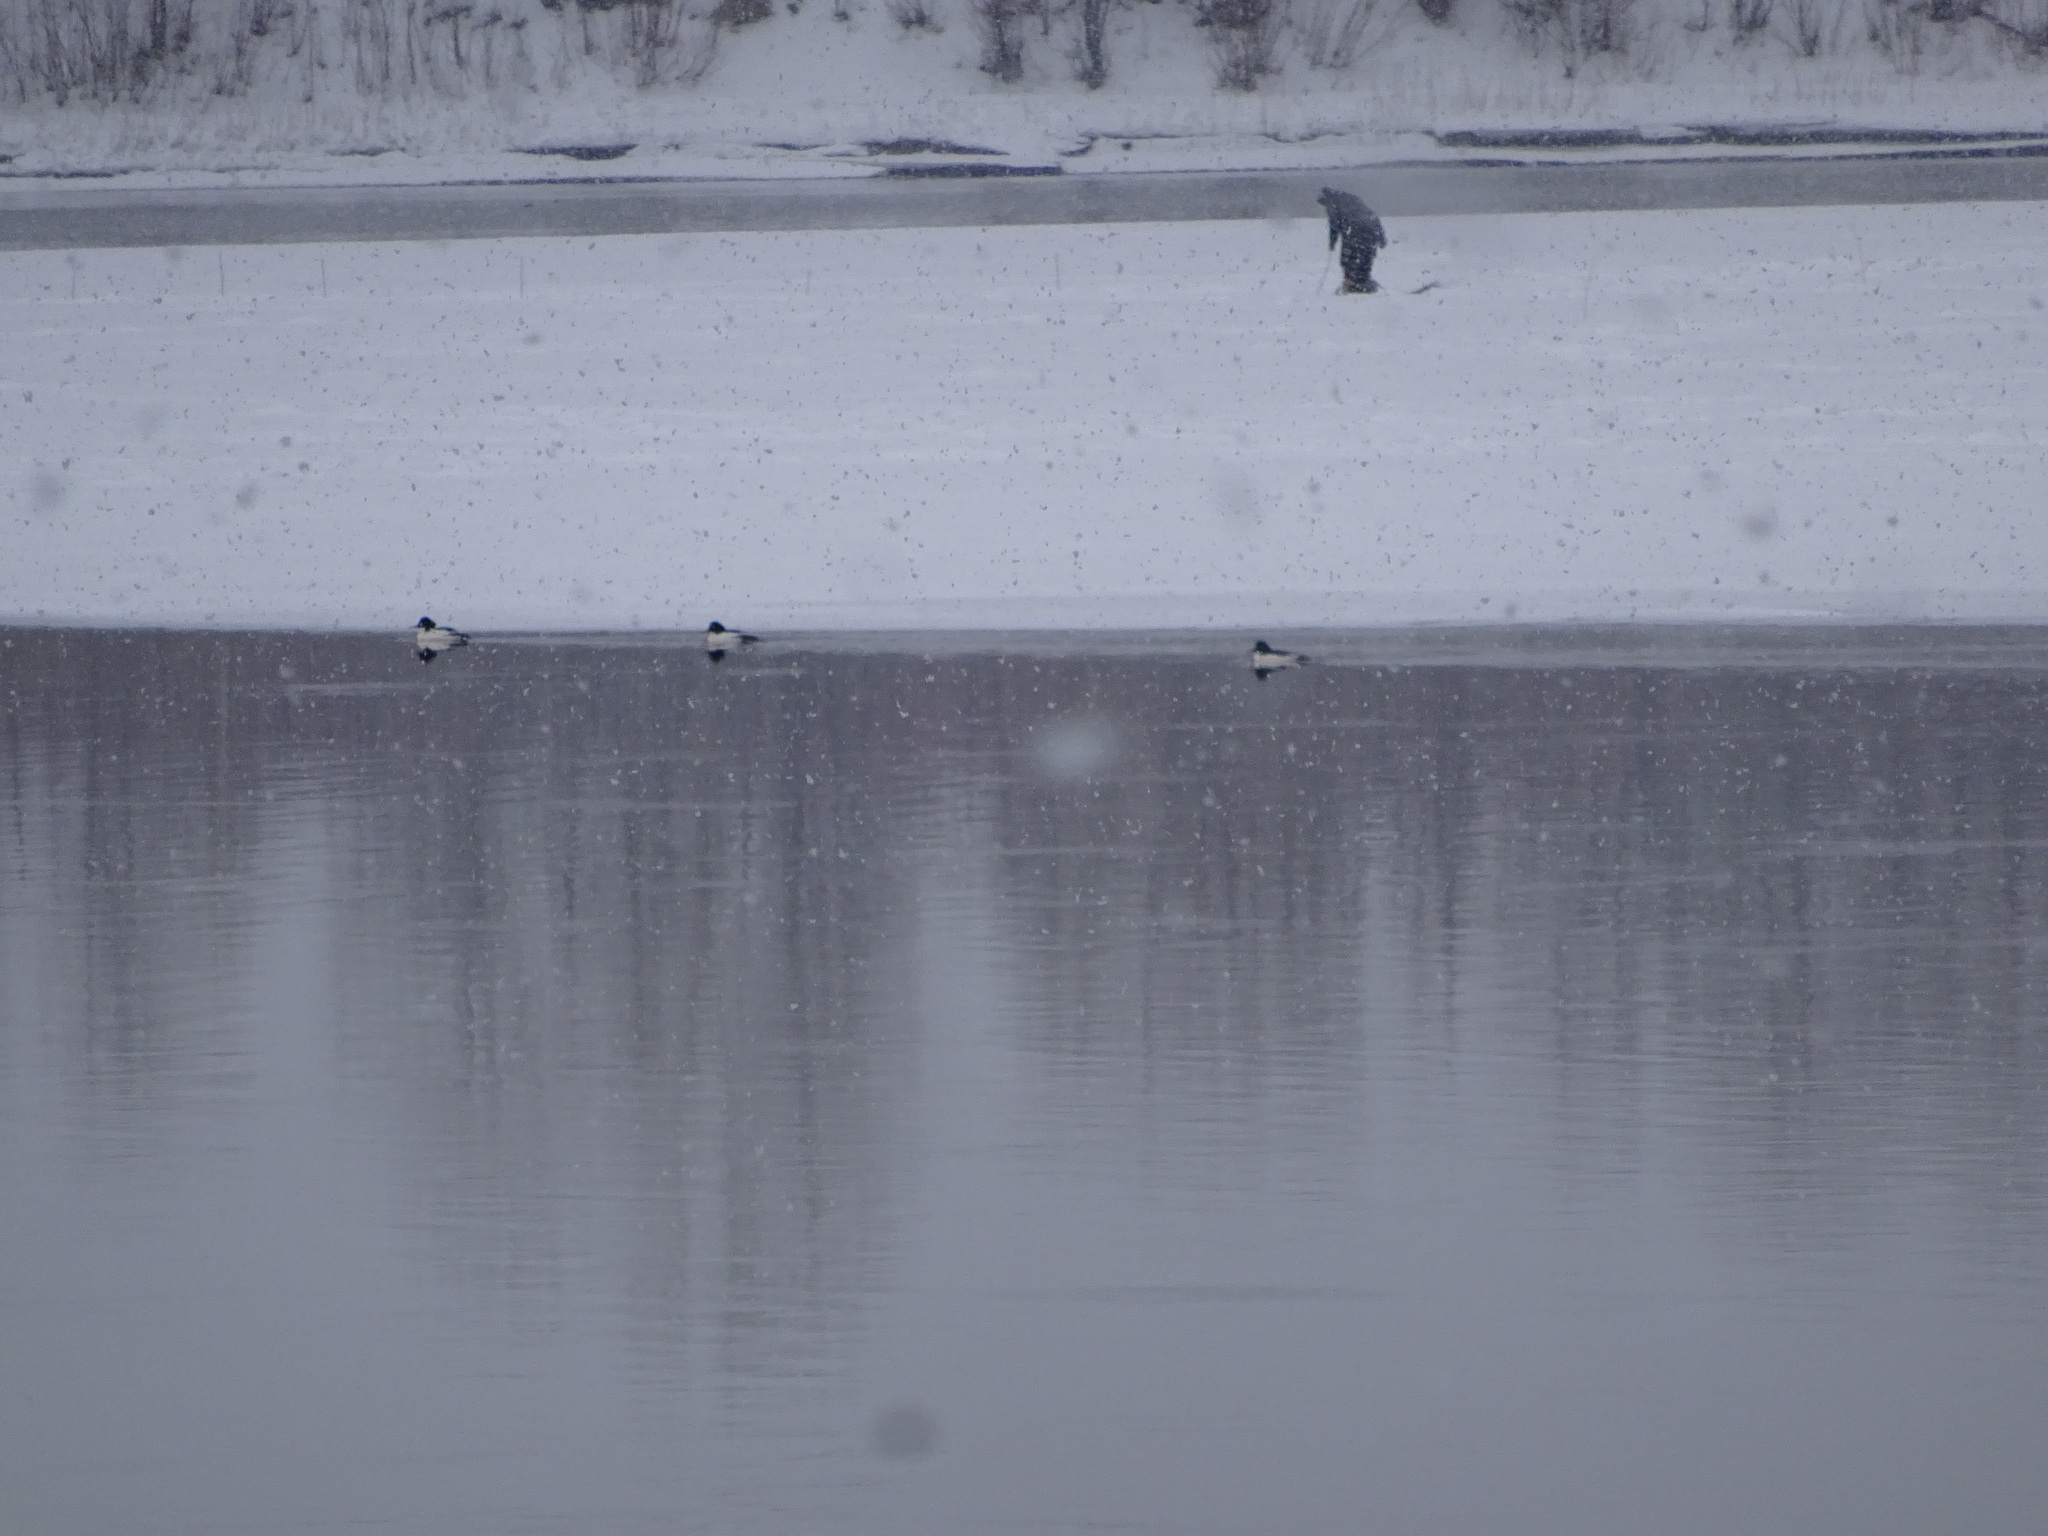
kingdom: Animalia
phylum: Chordata
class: Aves
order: Anseriformes
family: Anatidae
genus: Mergus
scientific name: Mergus merganser
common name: Common merganser
